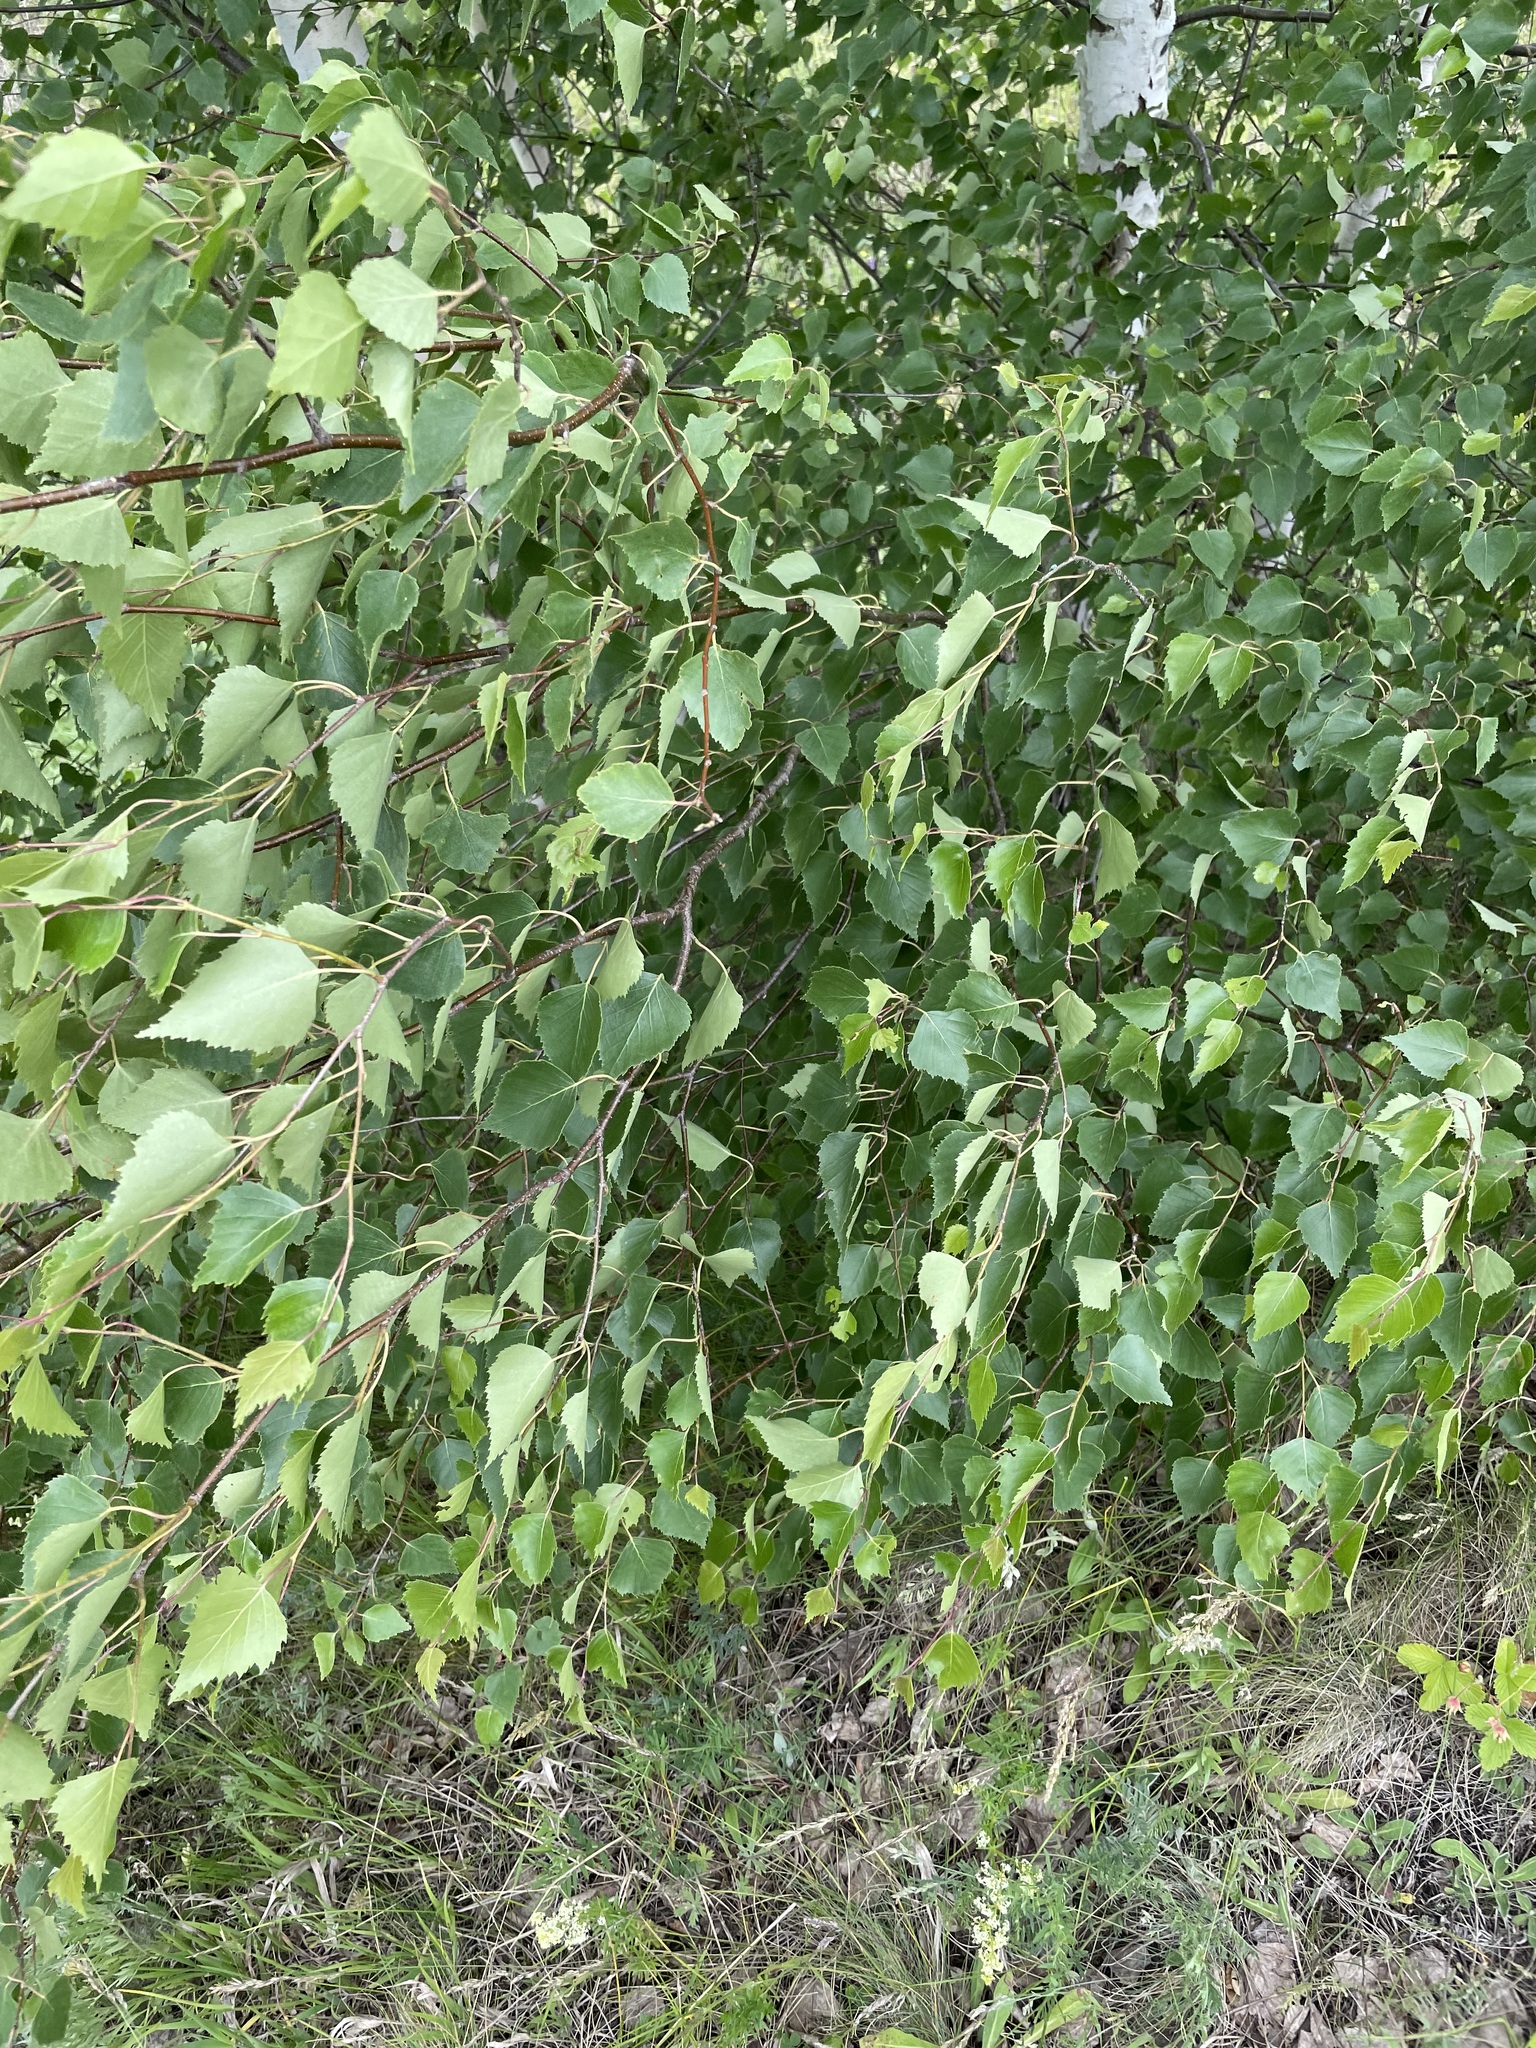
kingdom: Plantae
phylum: Tracheophyta
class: Magnoliopsida
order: Fagales
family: Betulaceae
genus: Betula
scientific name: Betula pendula
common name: Silver birch
